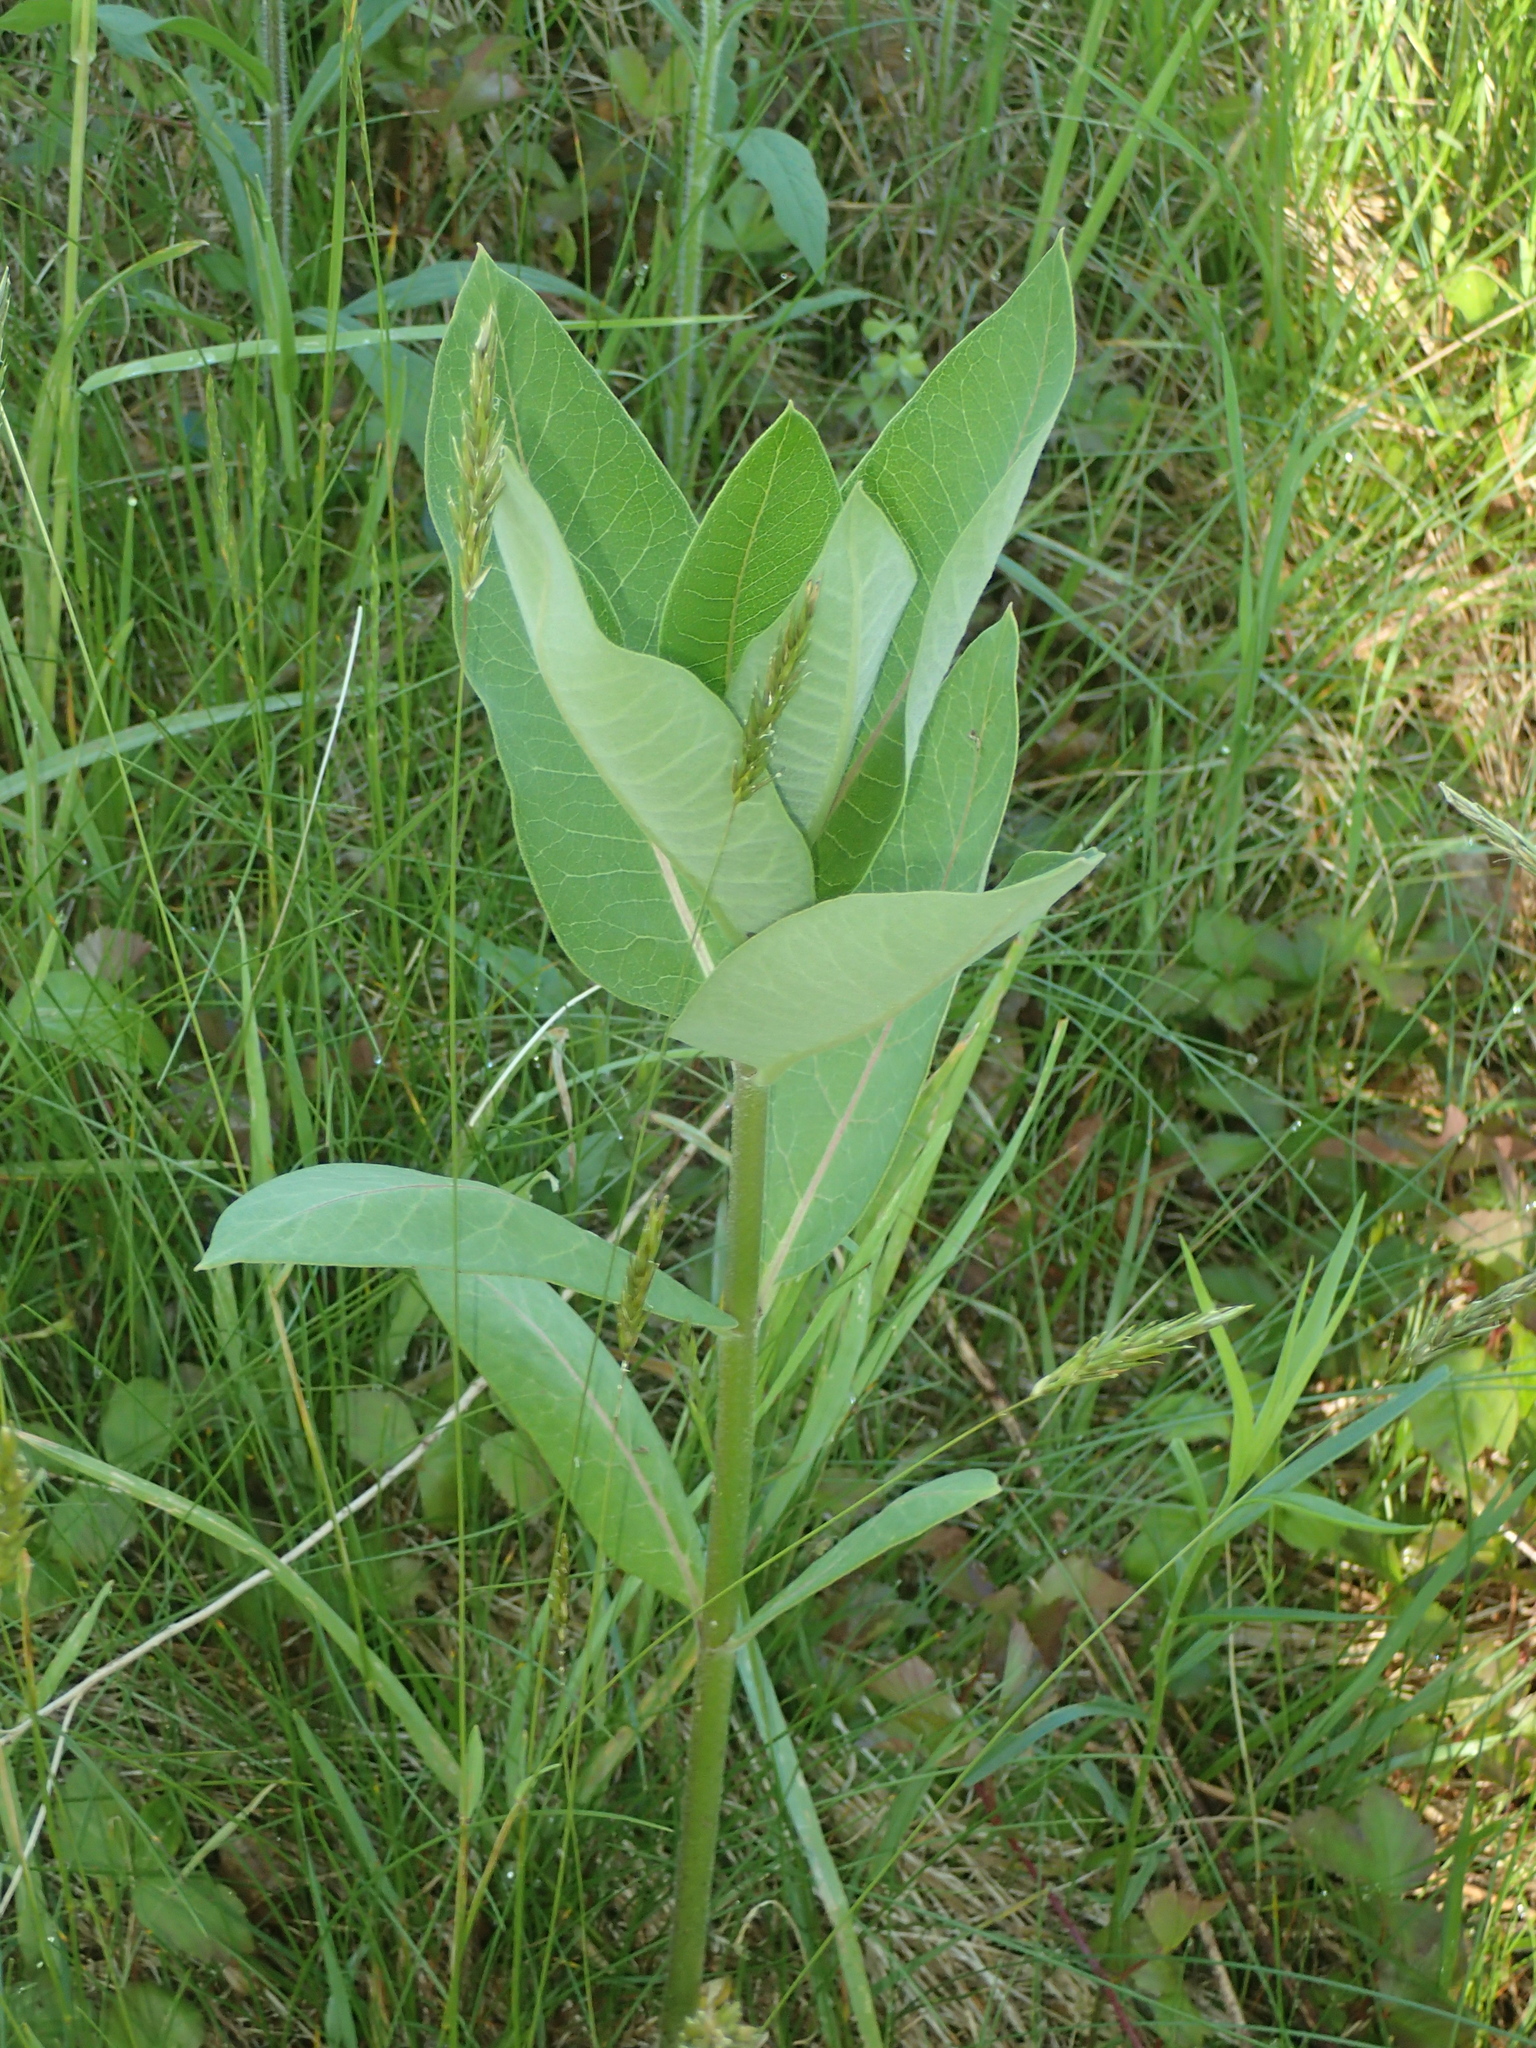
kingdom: Plantae
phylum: Tracheophyta
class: Magnoliopsida
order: Gentianales
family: Apocynaceae
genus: Asclepias
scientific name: Asclepias syriaca
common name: Common milkweed
